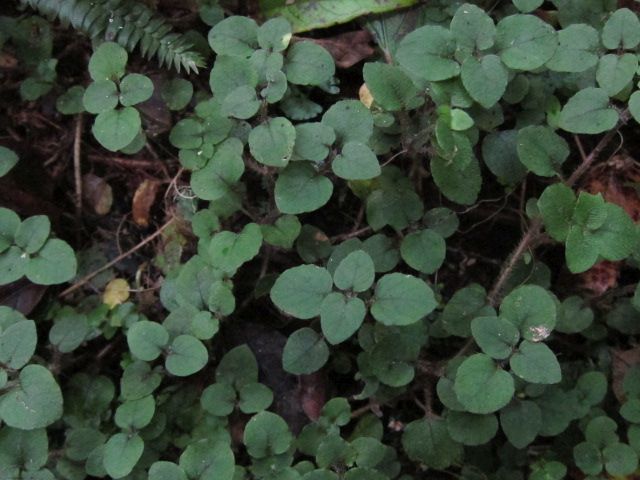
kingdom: Plantae
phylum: Tracheophyta
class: Magnoliopsida
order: Gentianales
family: Rubiaceae
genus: Nertera
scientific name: Nertera villosa
